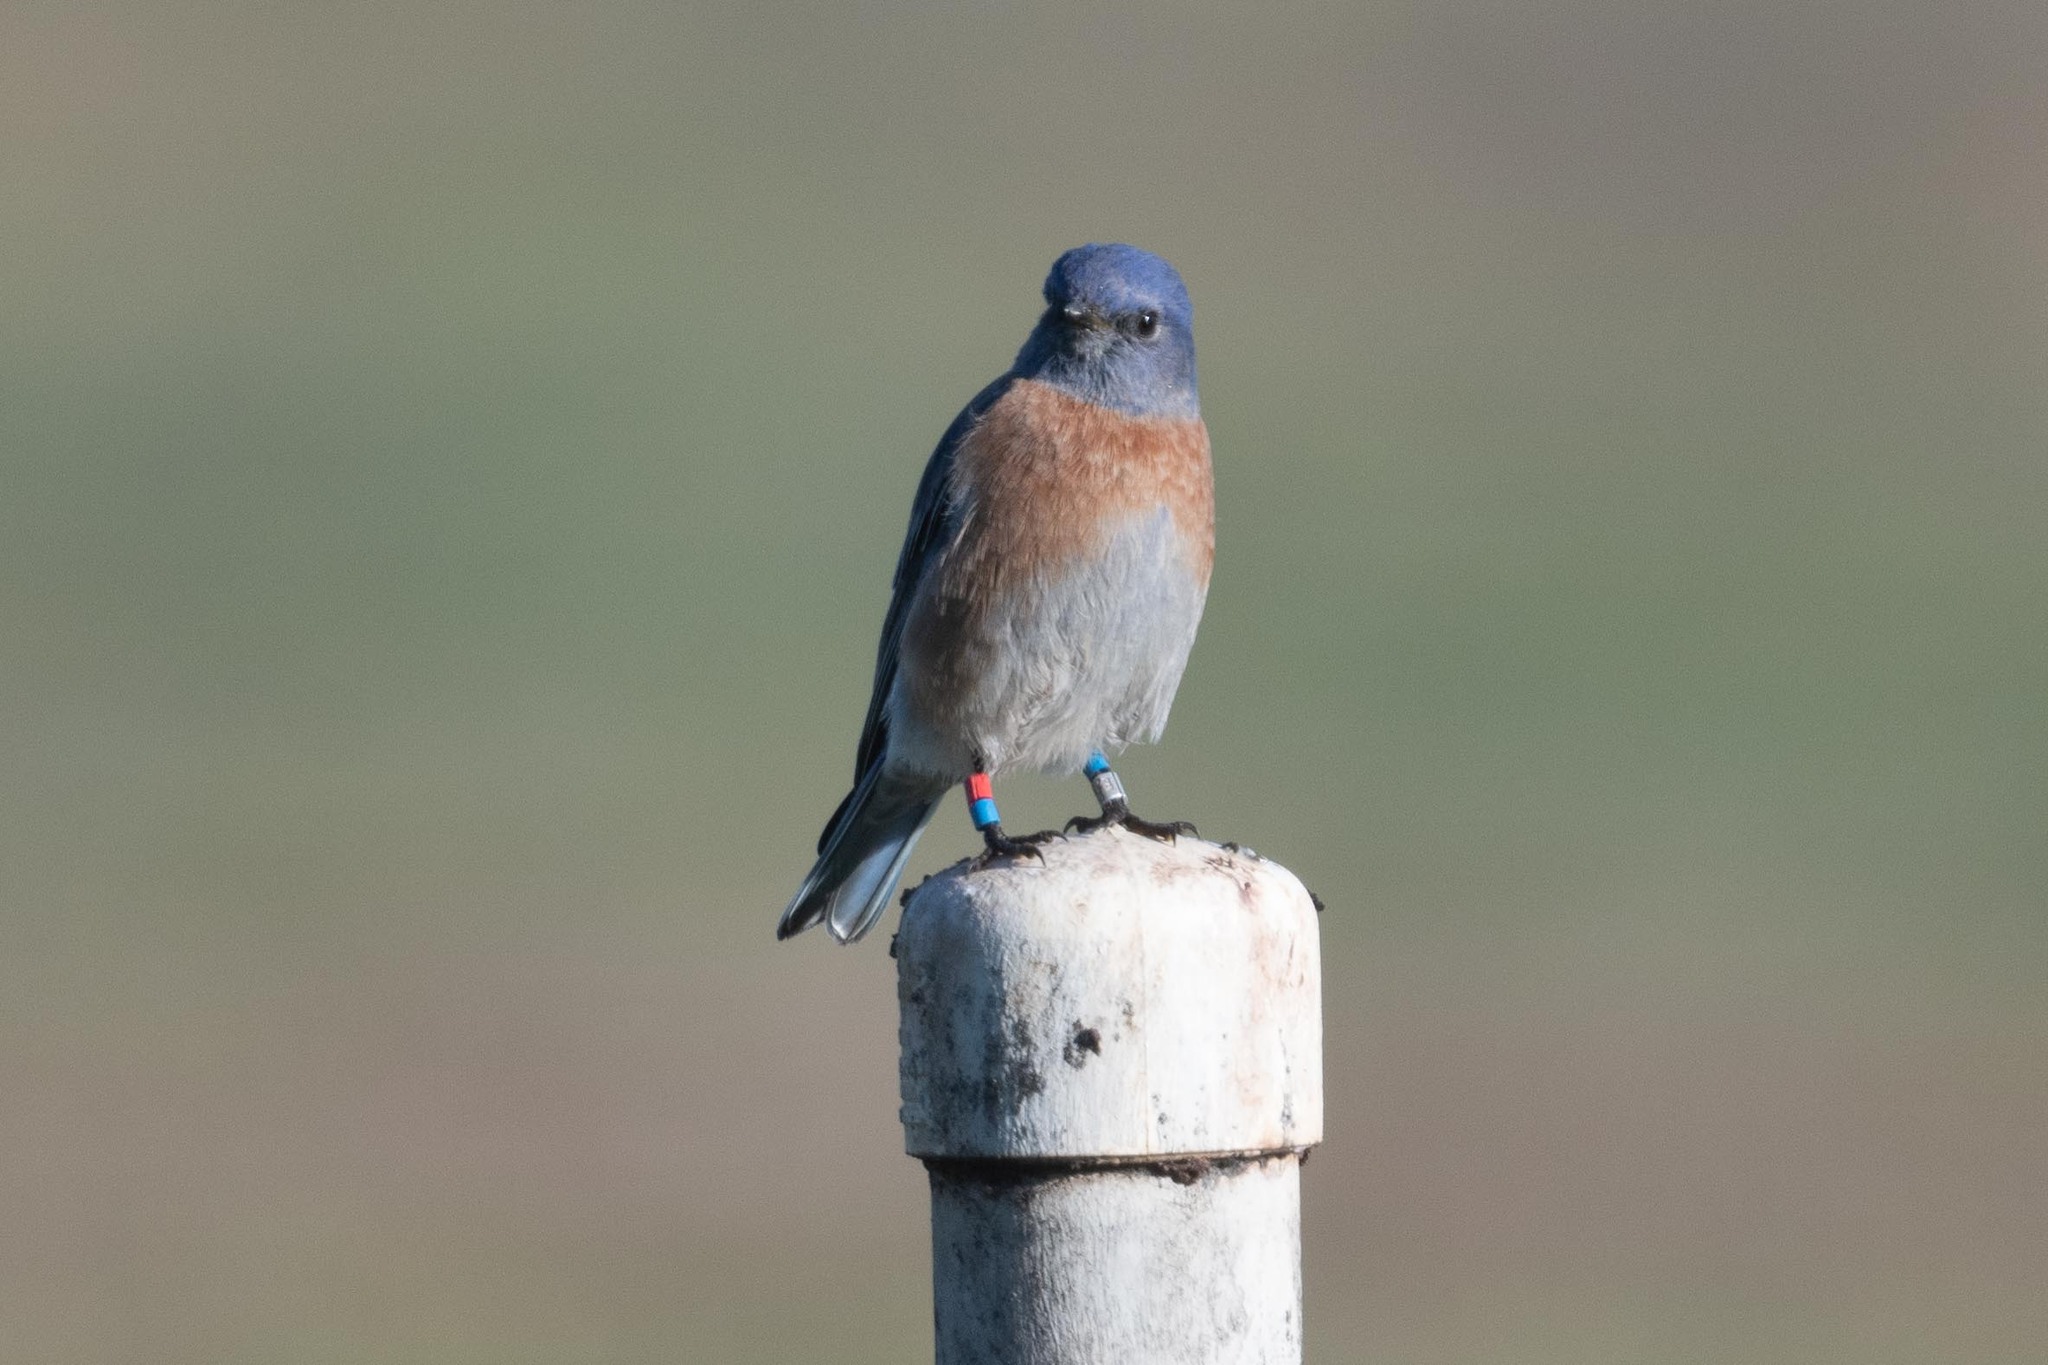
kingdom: Animalia
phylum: Chordata
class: Aves
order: Passeriformes
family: Turdidae
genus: Sialia
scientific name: Sialia mexicana
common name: Western bluebird
